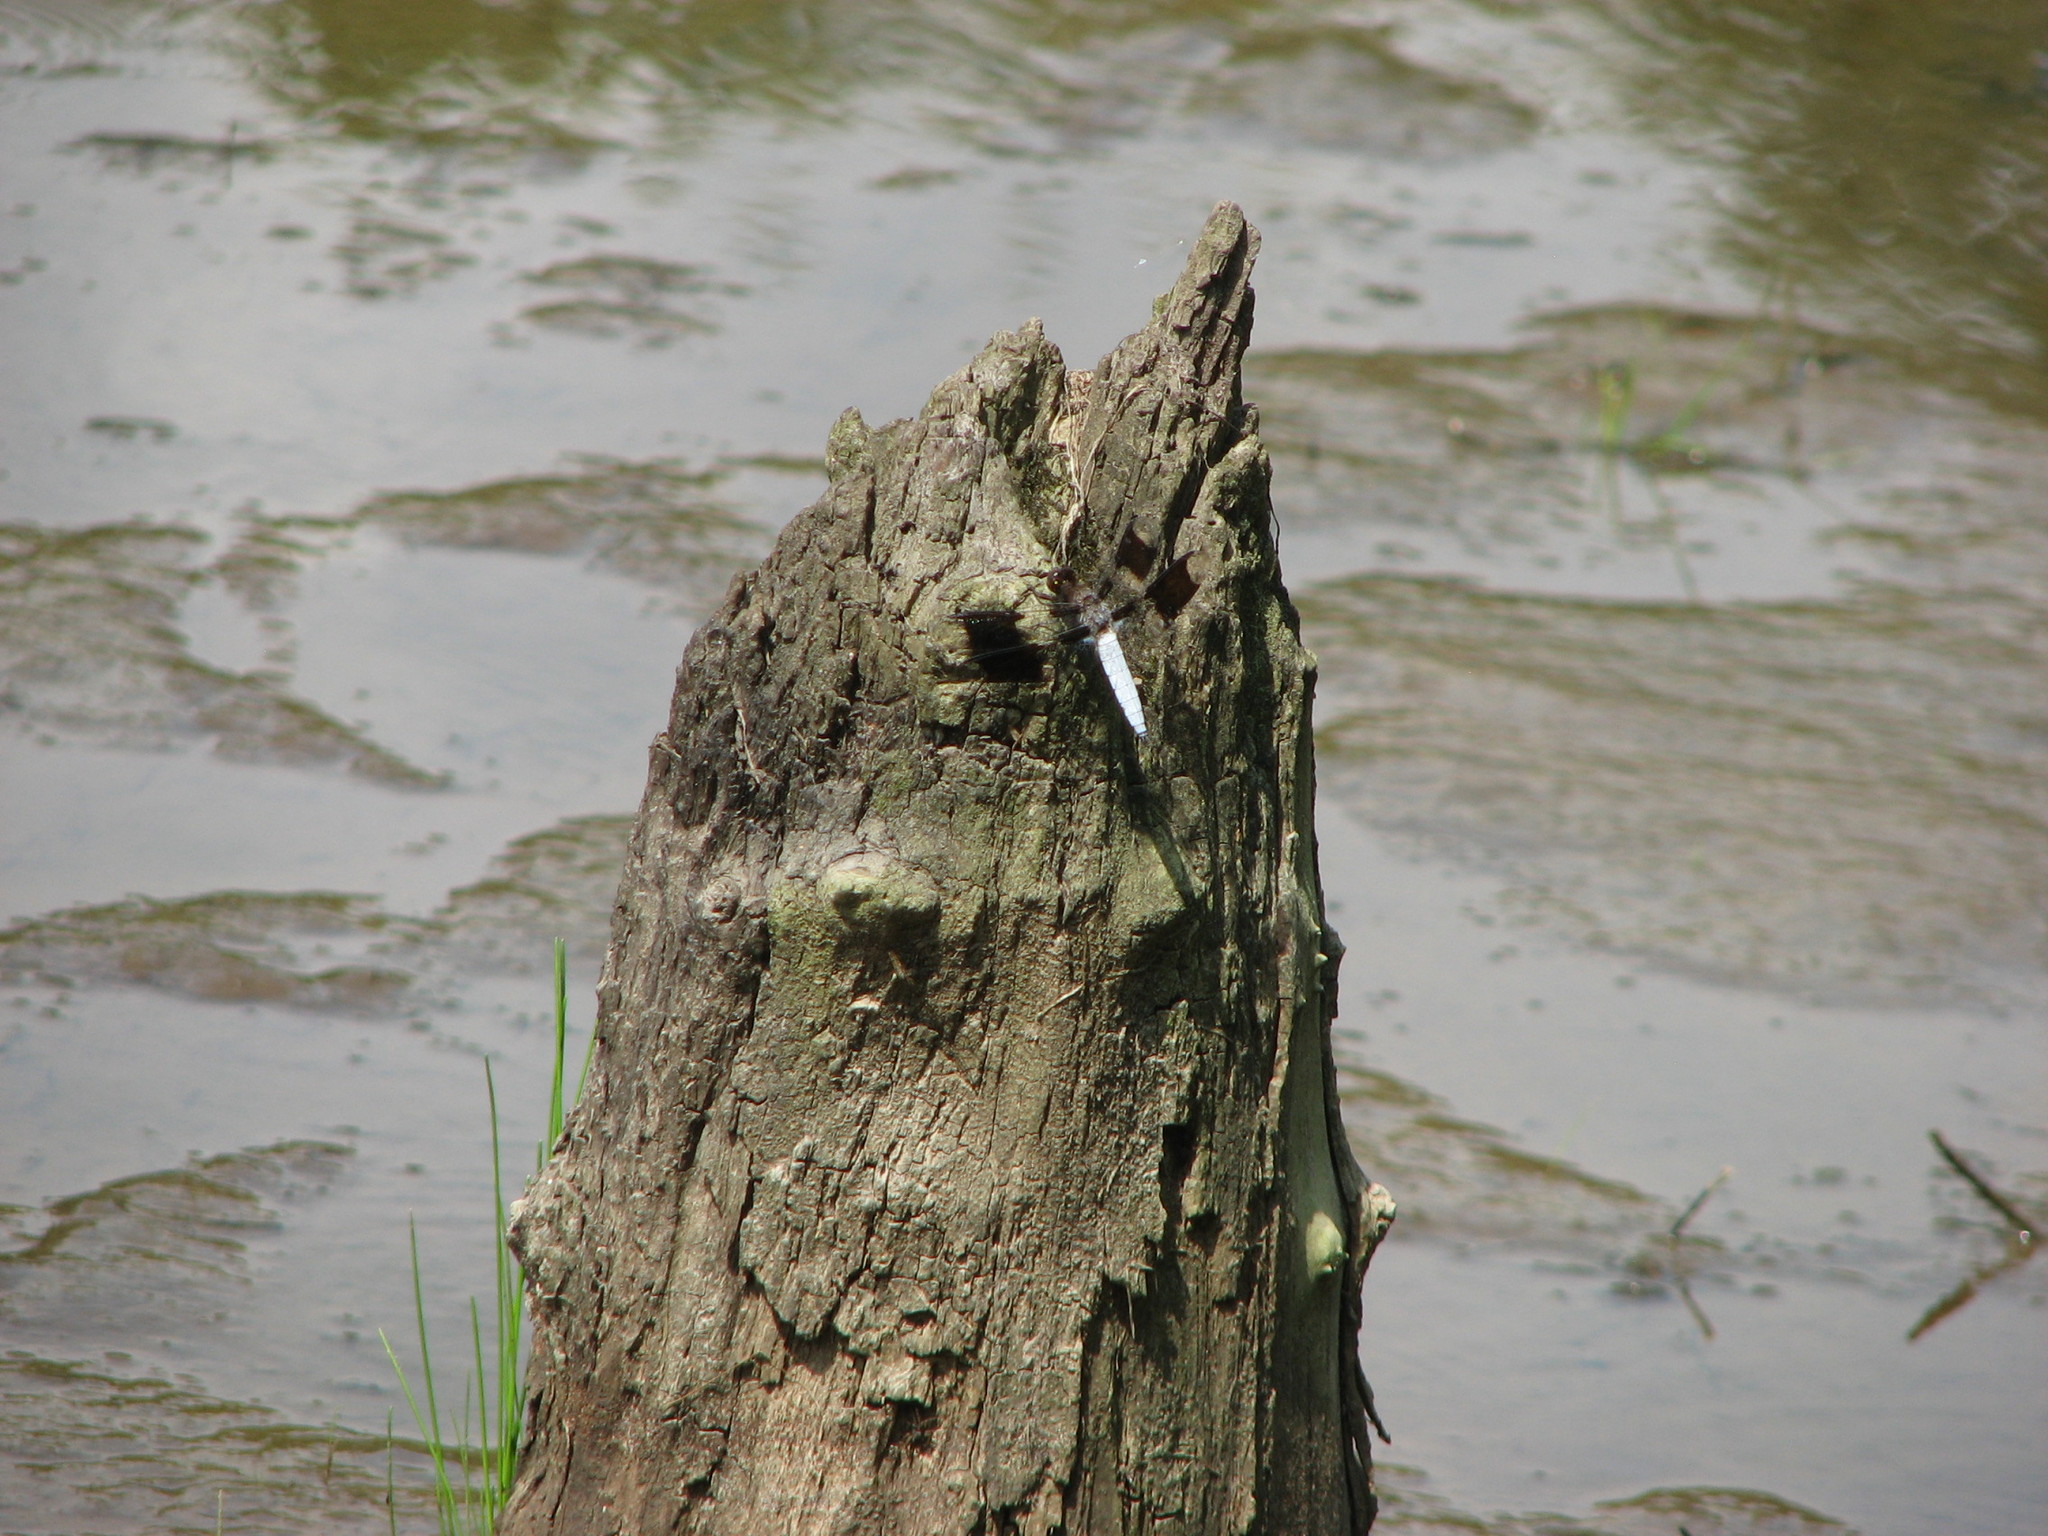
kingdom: Animalia
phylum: Arthropoda
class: Insecta
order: Odonata
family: Libellulidae
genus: Plathemis
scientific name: Plathemis lydia
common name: Common whitetail
